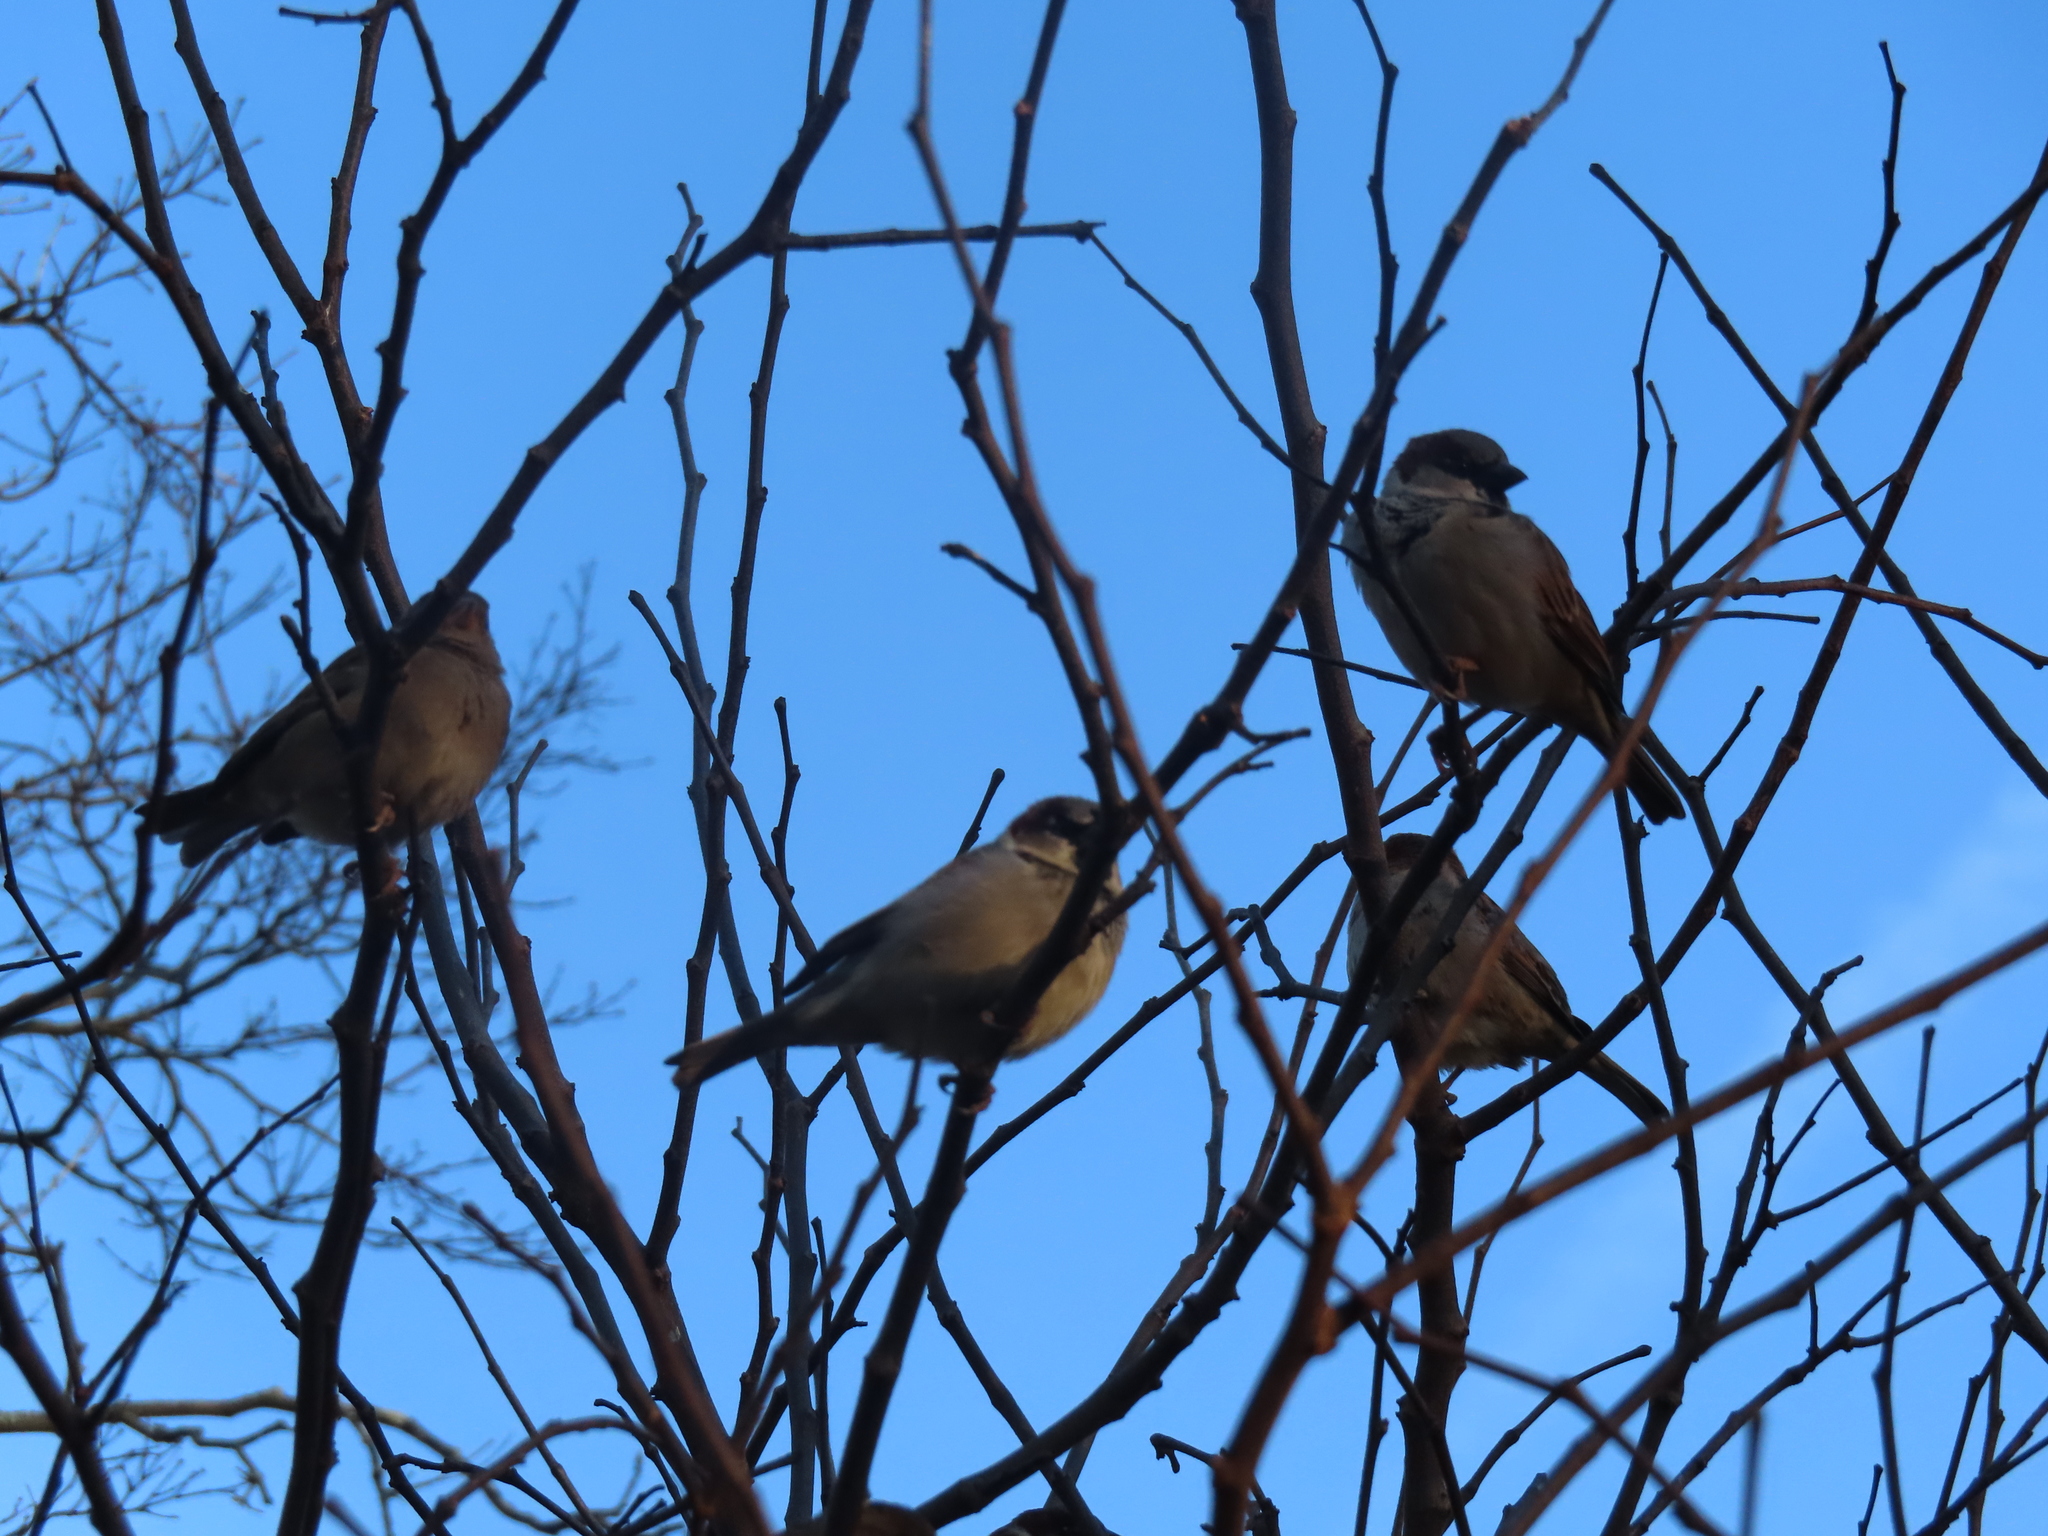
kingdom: Animalia
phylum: Chordata
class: Aves
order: Passeriformes
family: Passeridae
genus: Passer
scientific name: Passer domesticus
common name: House sparrow
